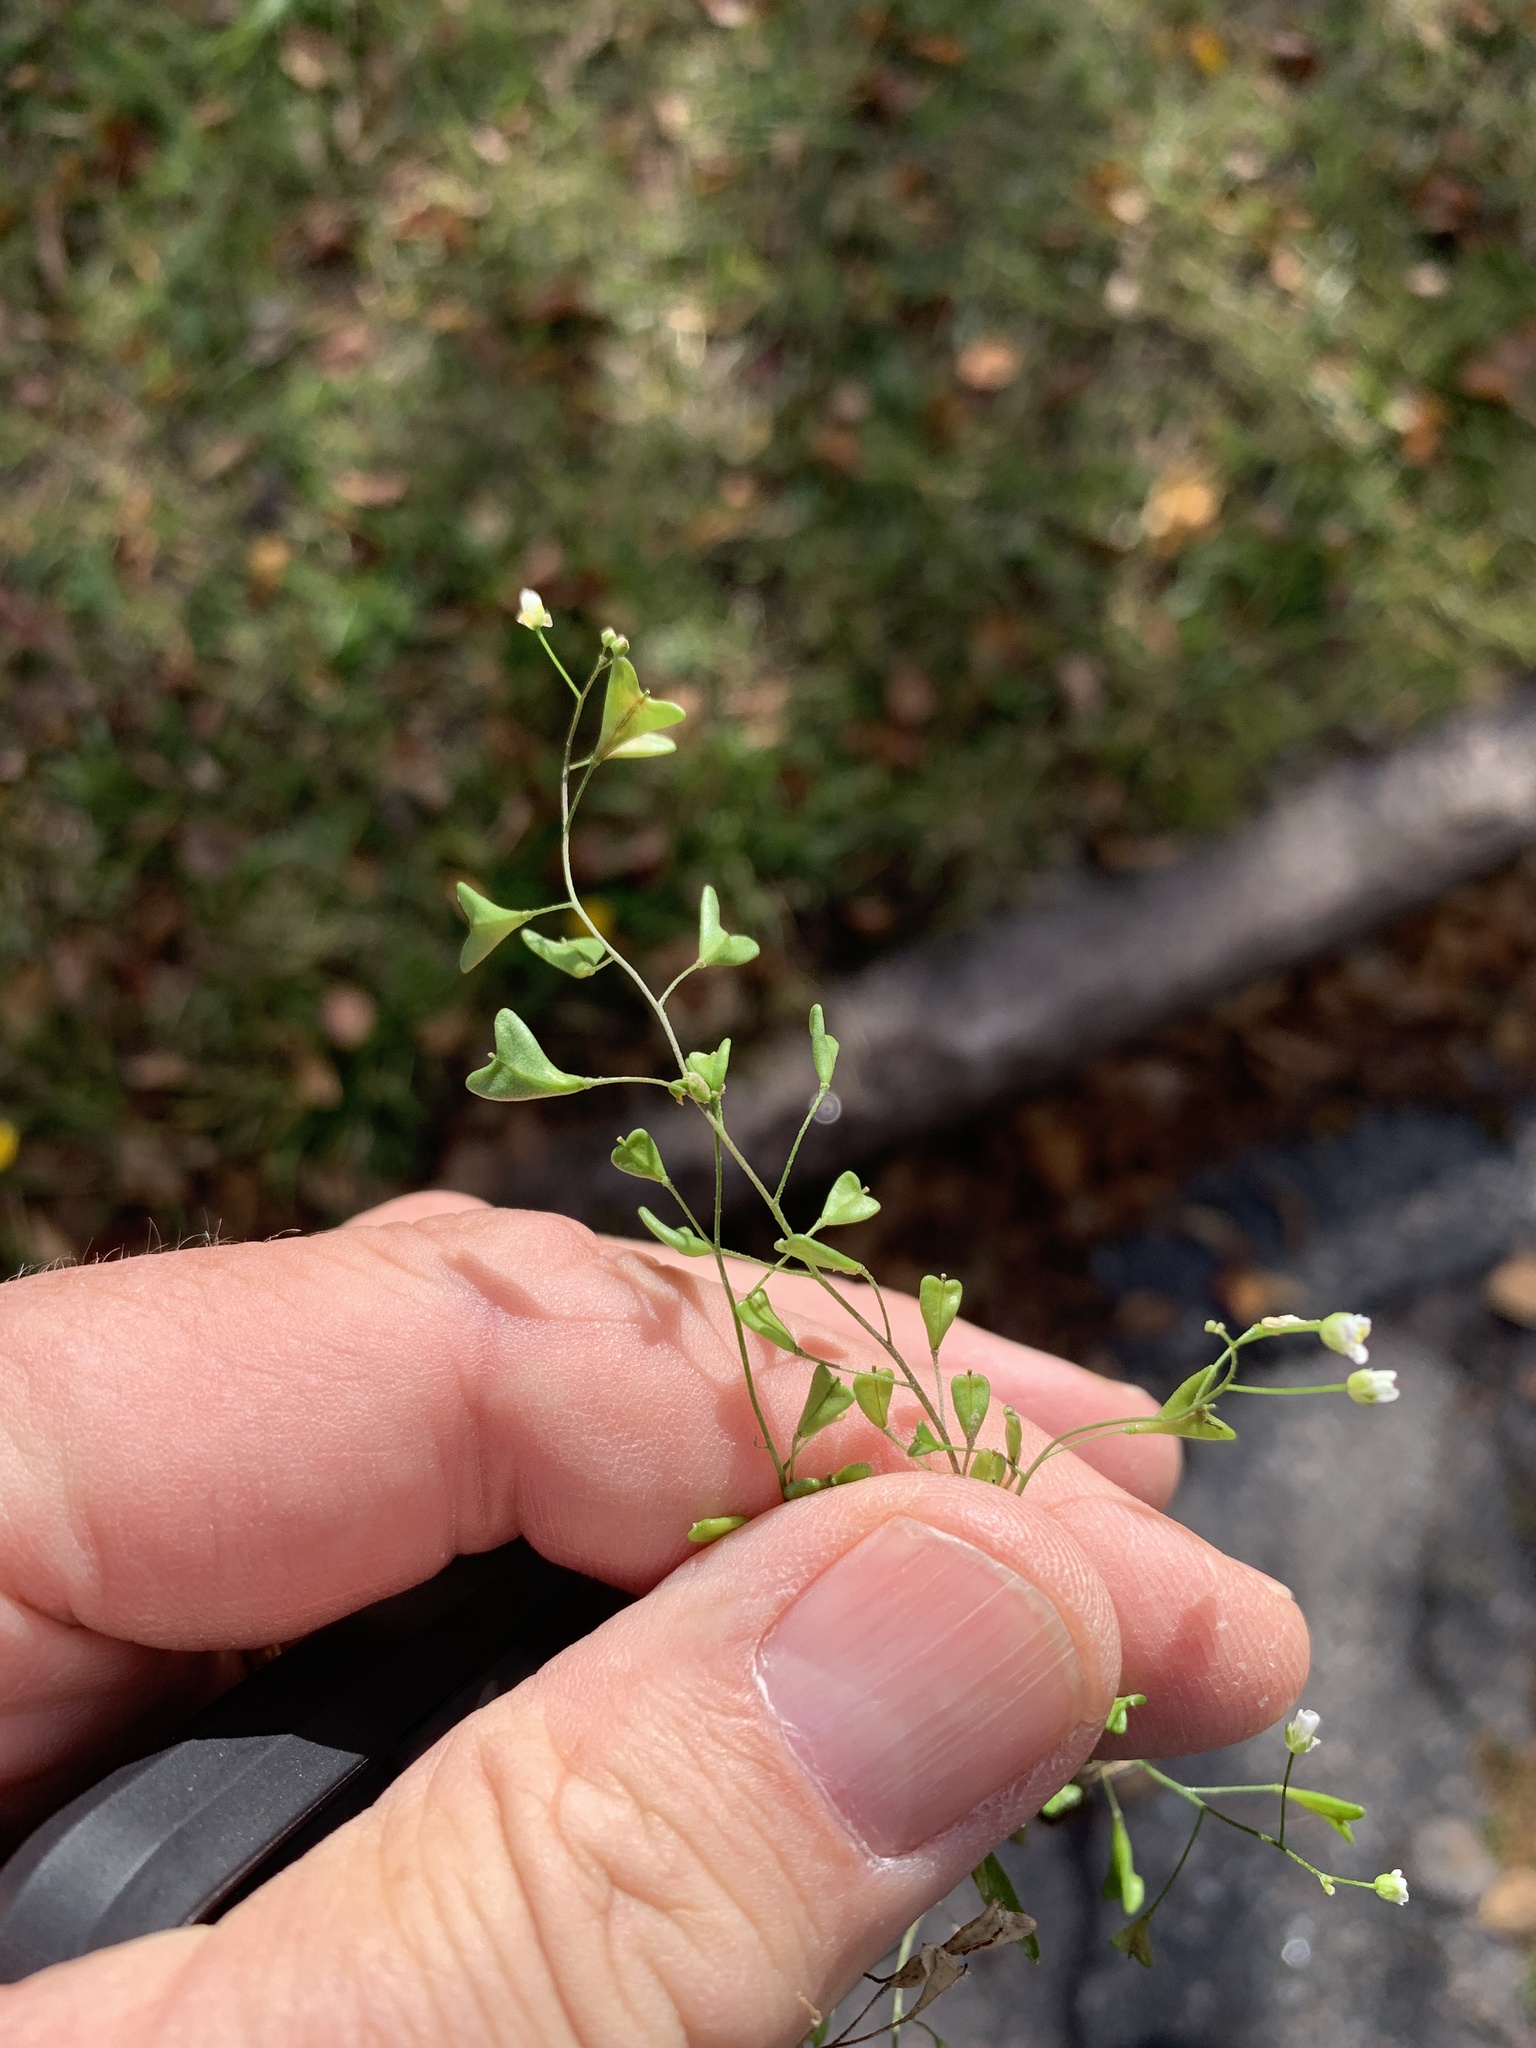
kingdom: Plantae
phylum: Tracheophyta
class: Magnoliopsida
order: Brassicales
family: Brassicaceae
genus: Capsella
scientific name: Capsella bursa-pastoris
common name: Shepherd's purse
